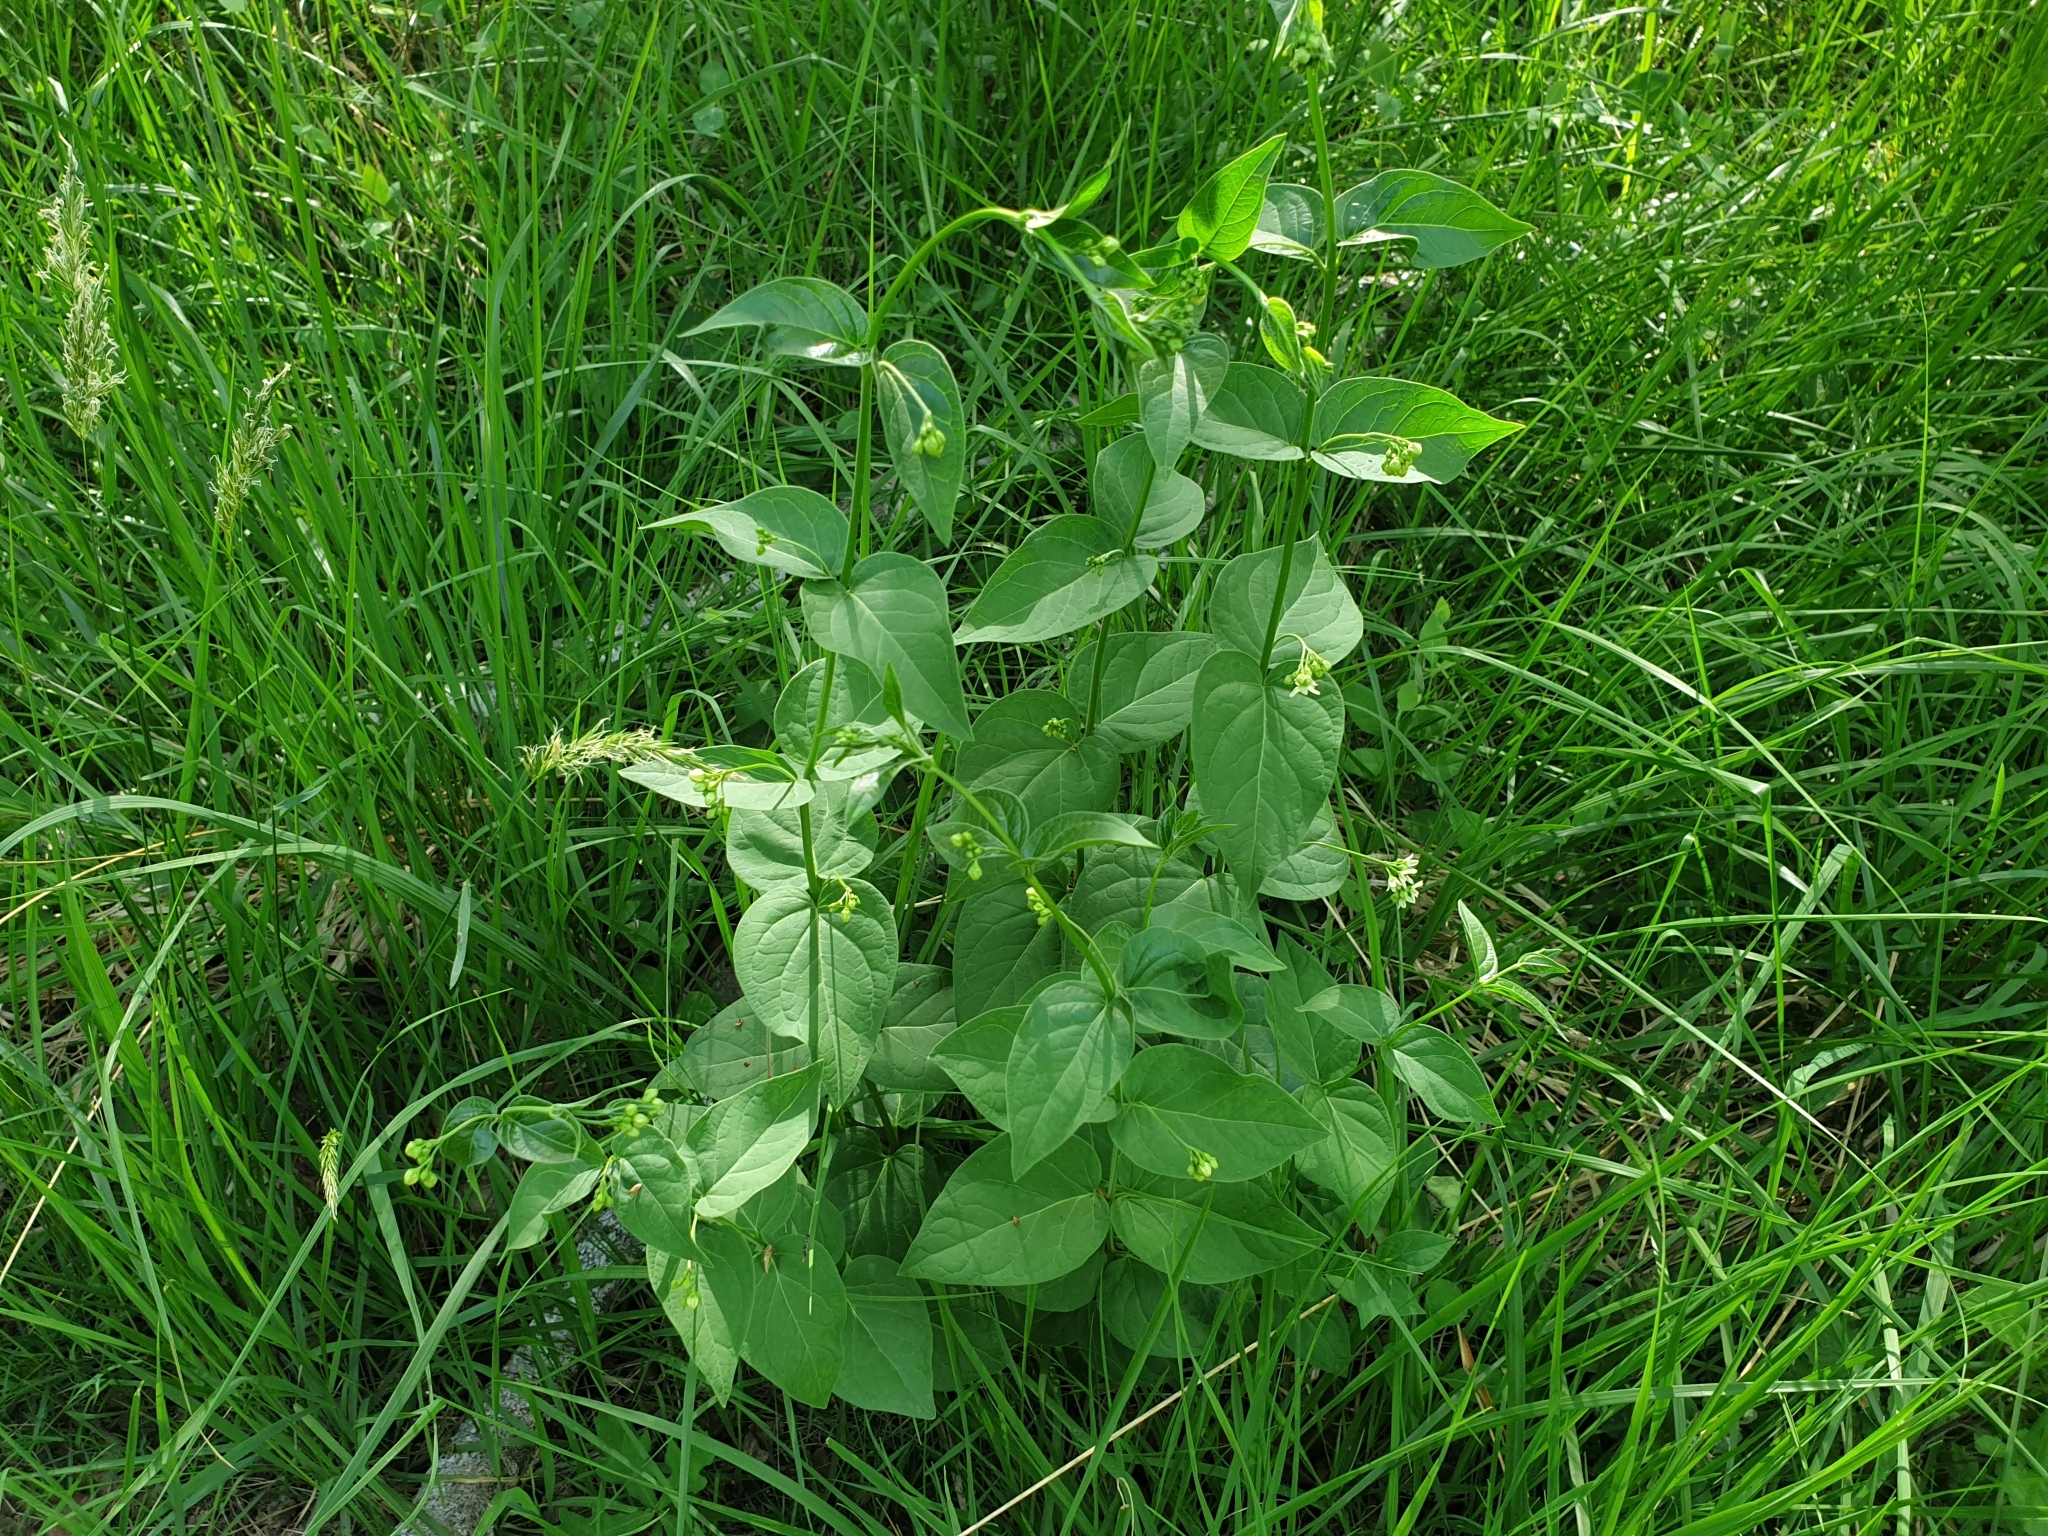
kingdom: Plantae
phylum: Tracheophyta
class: Magnoliopsida
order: Gentianales
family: Apocynaceae
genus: Vincetoxicum
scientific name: Vincetoxicum hirundinaria
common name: White swallowwort
